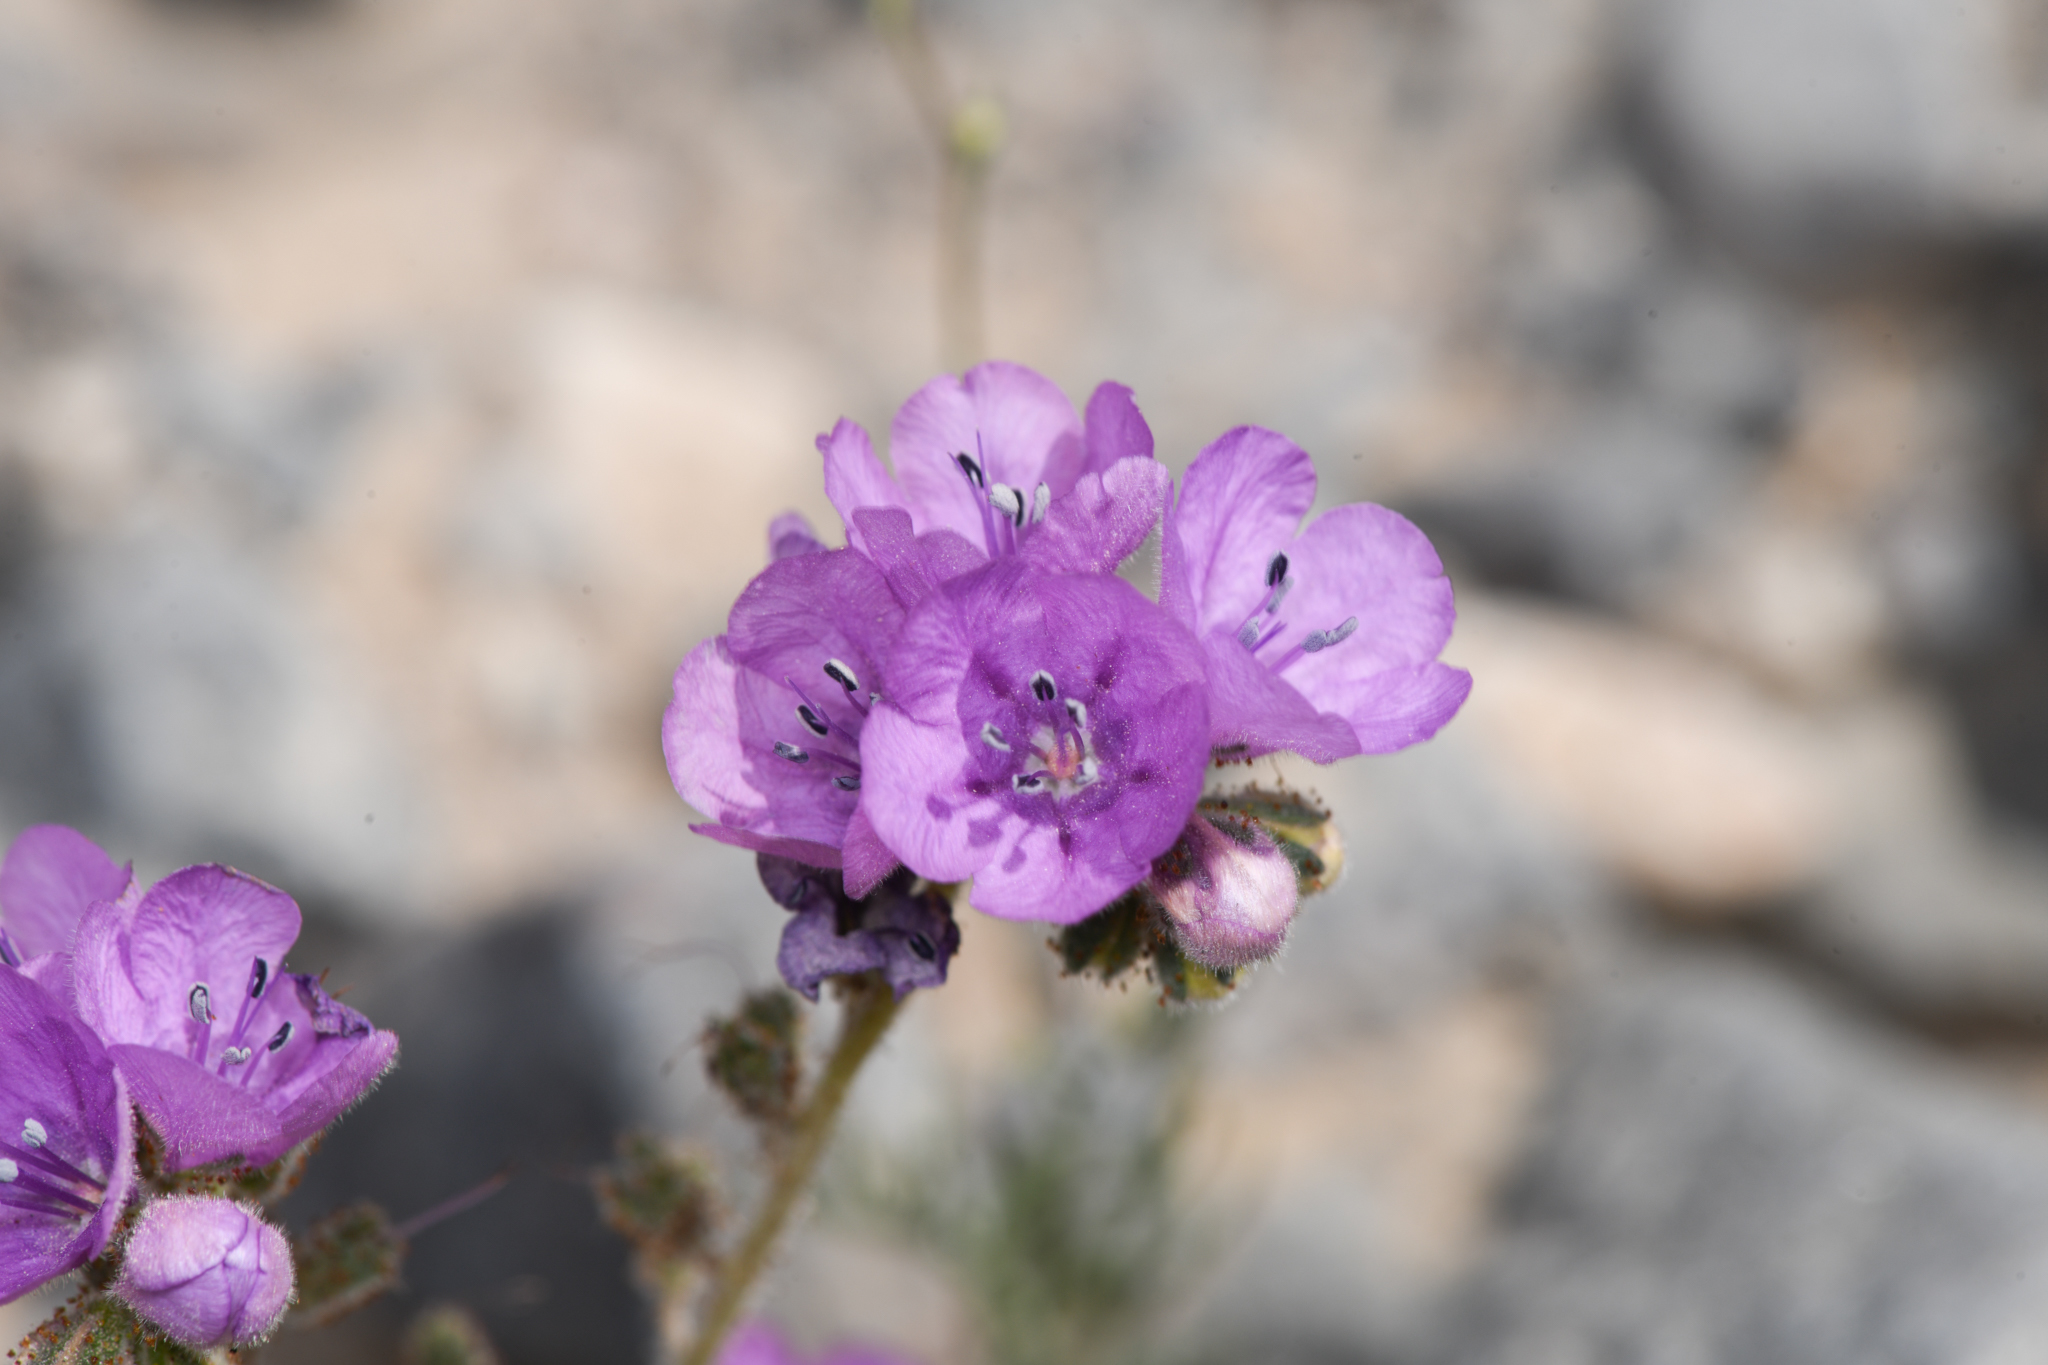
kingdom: Plantae
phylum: Tracheophyta
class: Magnoliopsida
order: Boraginales
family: Hydrophyllaceae
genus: Phacelia
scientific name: Phacelia calthifolia
